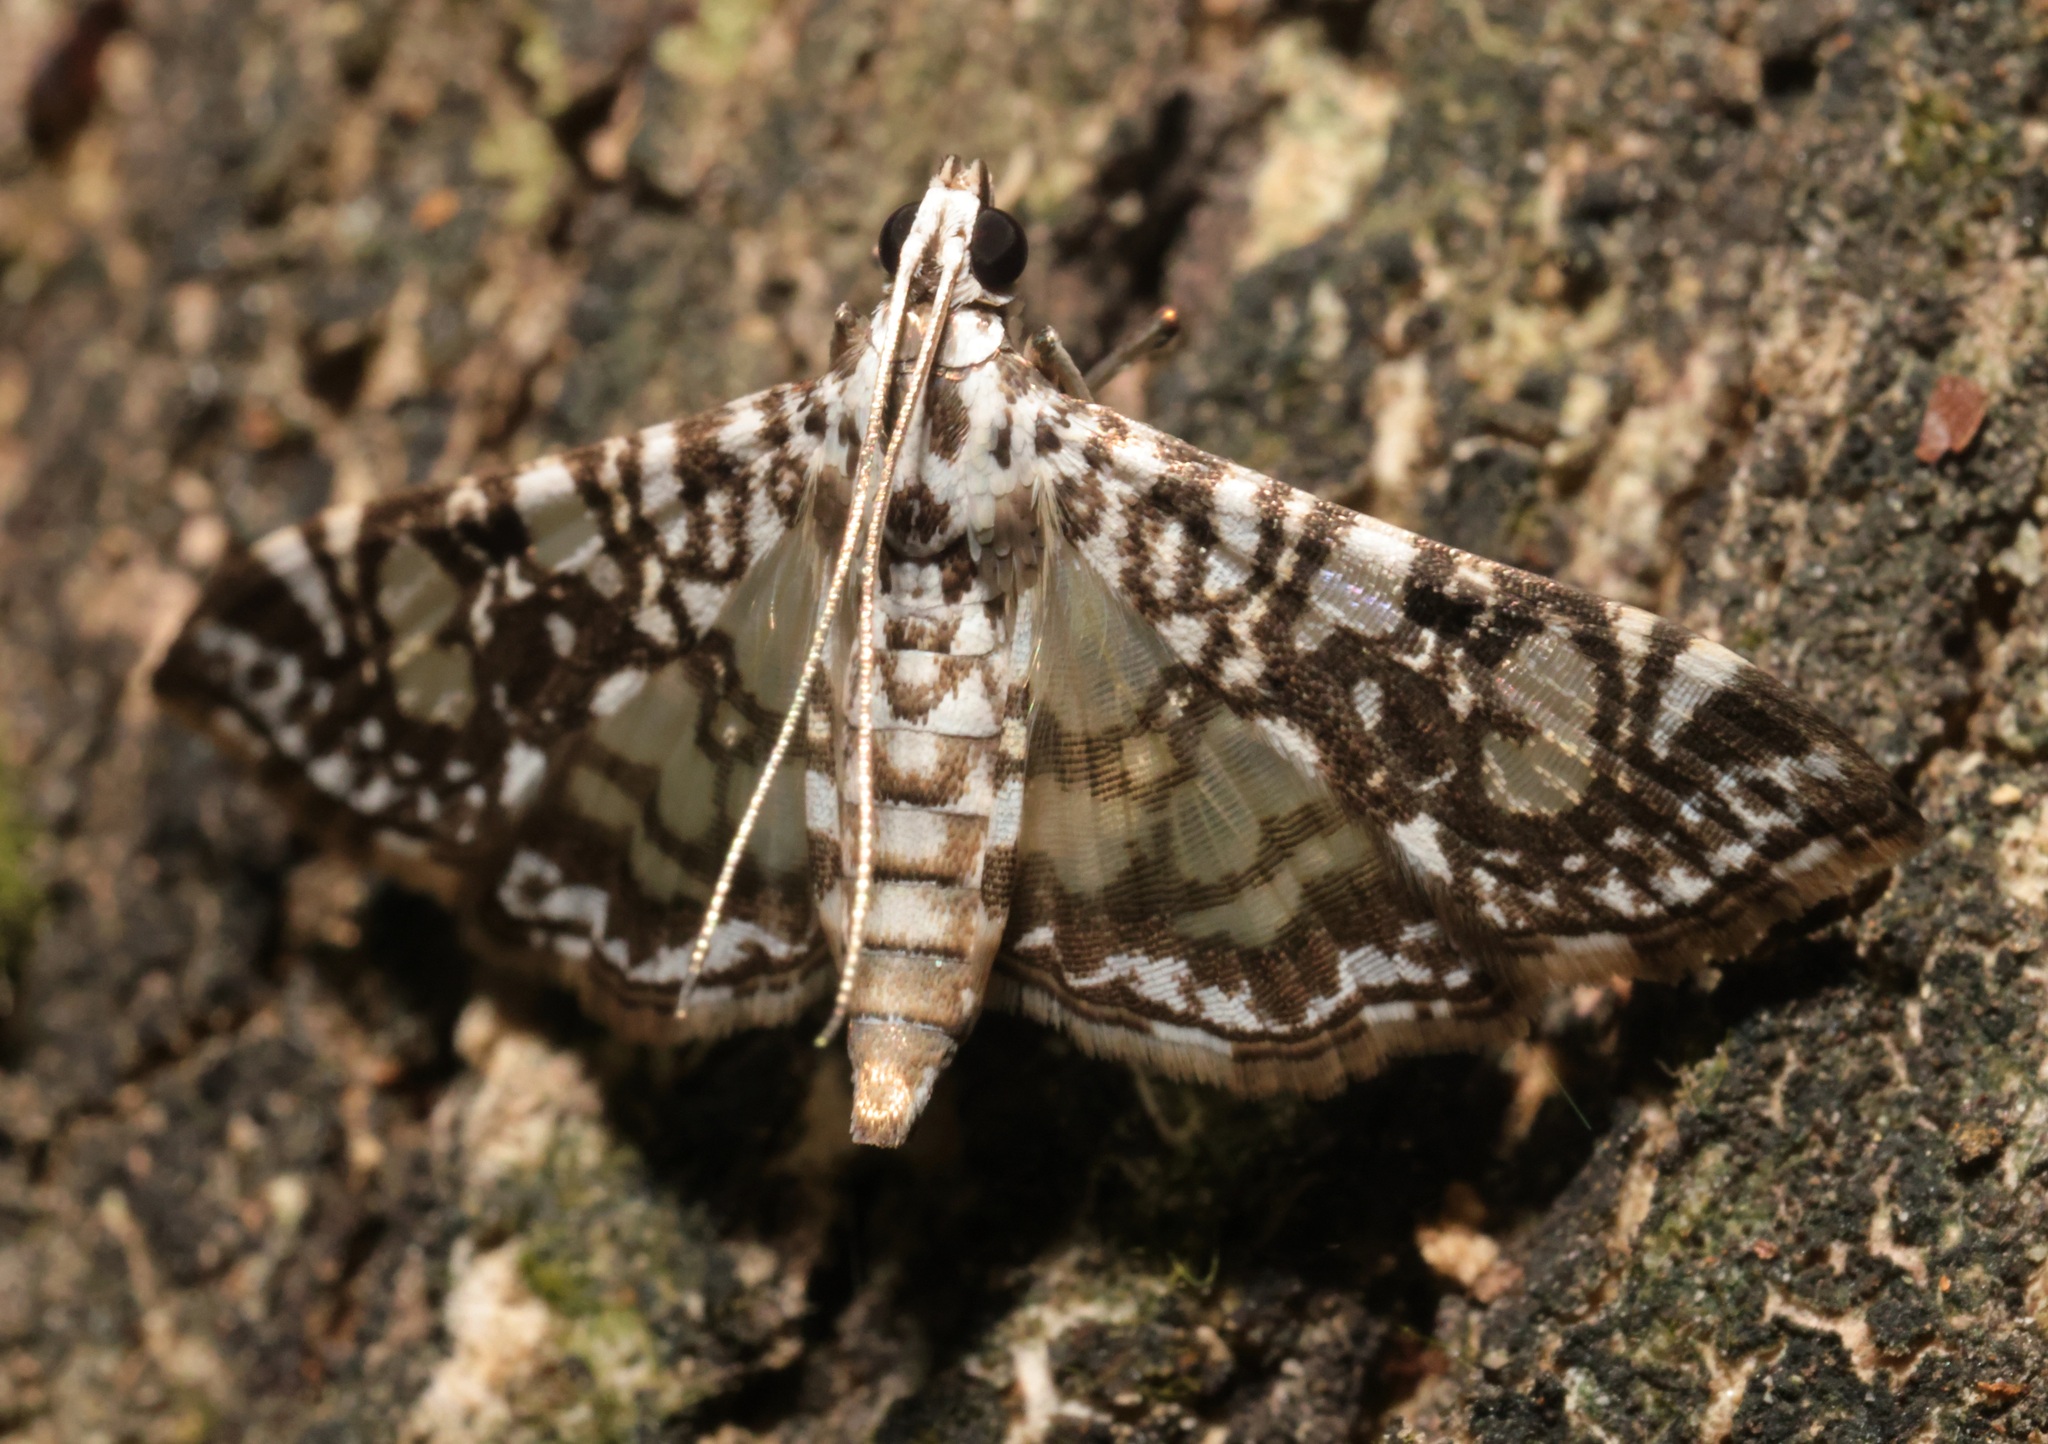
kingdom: Animalia
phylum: Arthropoda
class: Insecta
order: Lepidoptera
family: Crambidae
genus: Glyphodes
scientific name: Glyphodes onychinalis
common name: Swan plant moth
